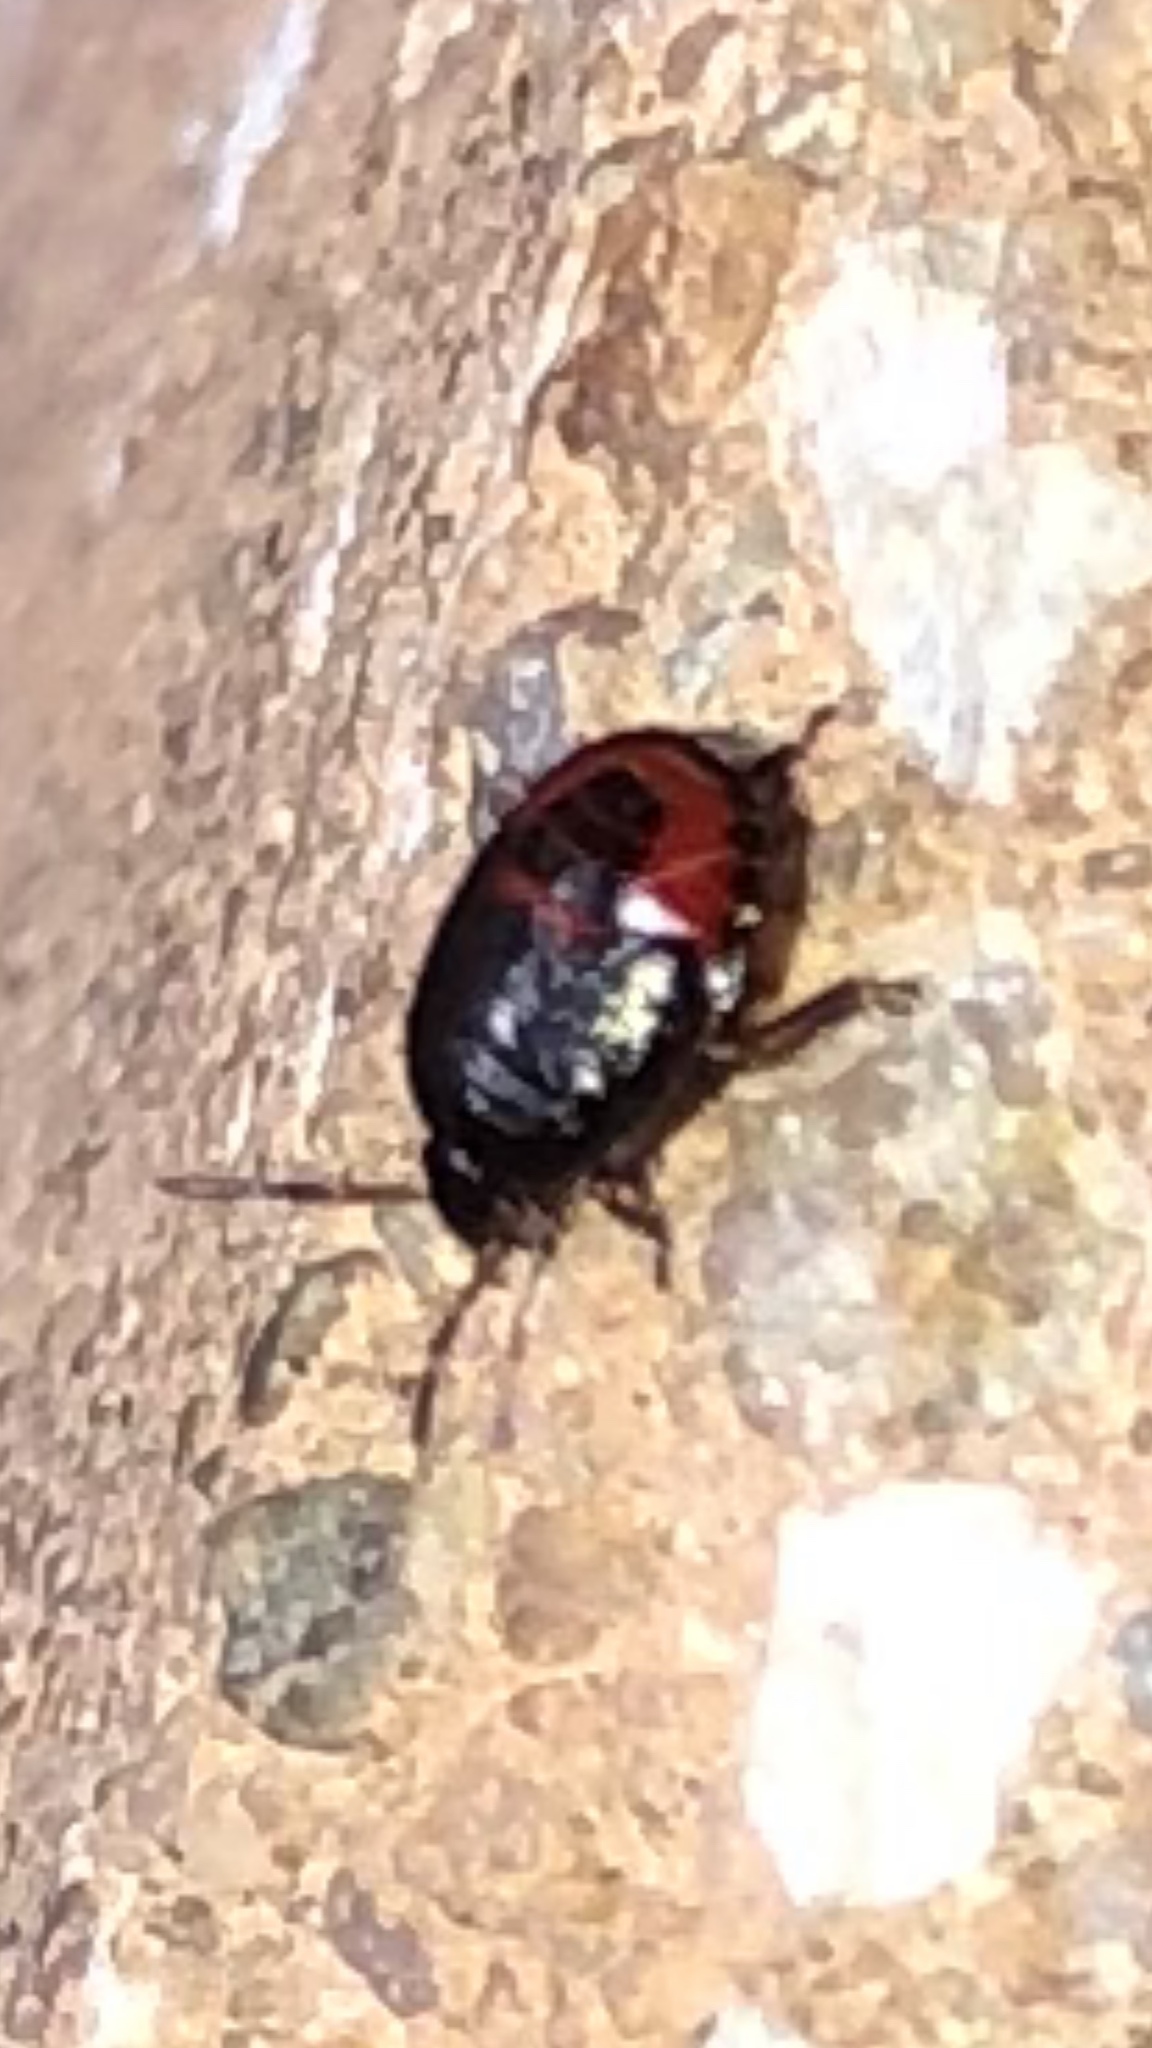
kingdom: Animalia
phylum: Arthropoda
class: Insecta
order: Hemiptera
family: Cydnidae
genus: Sehirus
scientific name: Sehirus cinctus
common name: White-margined burrower bug
